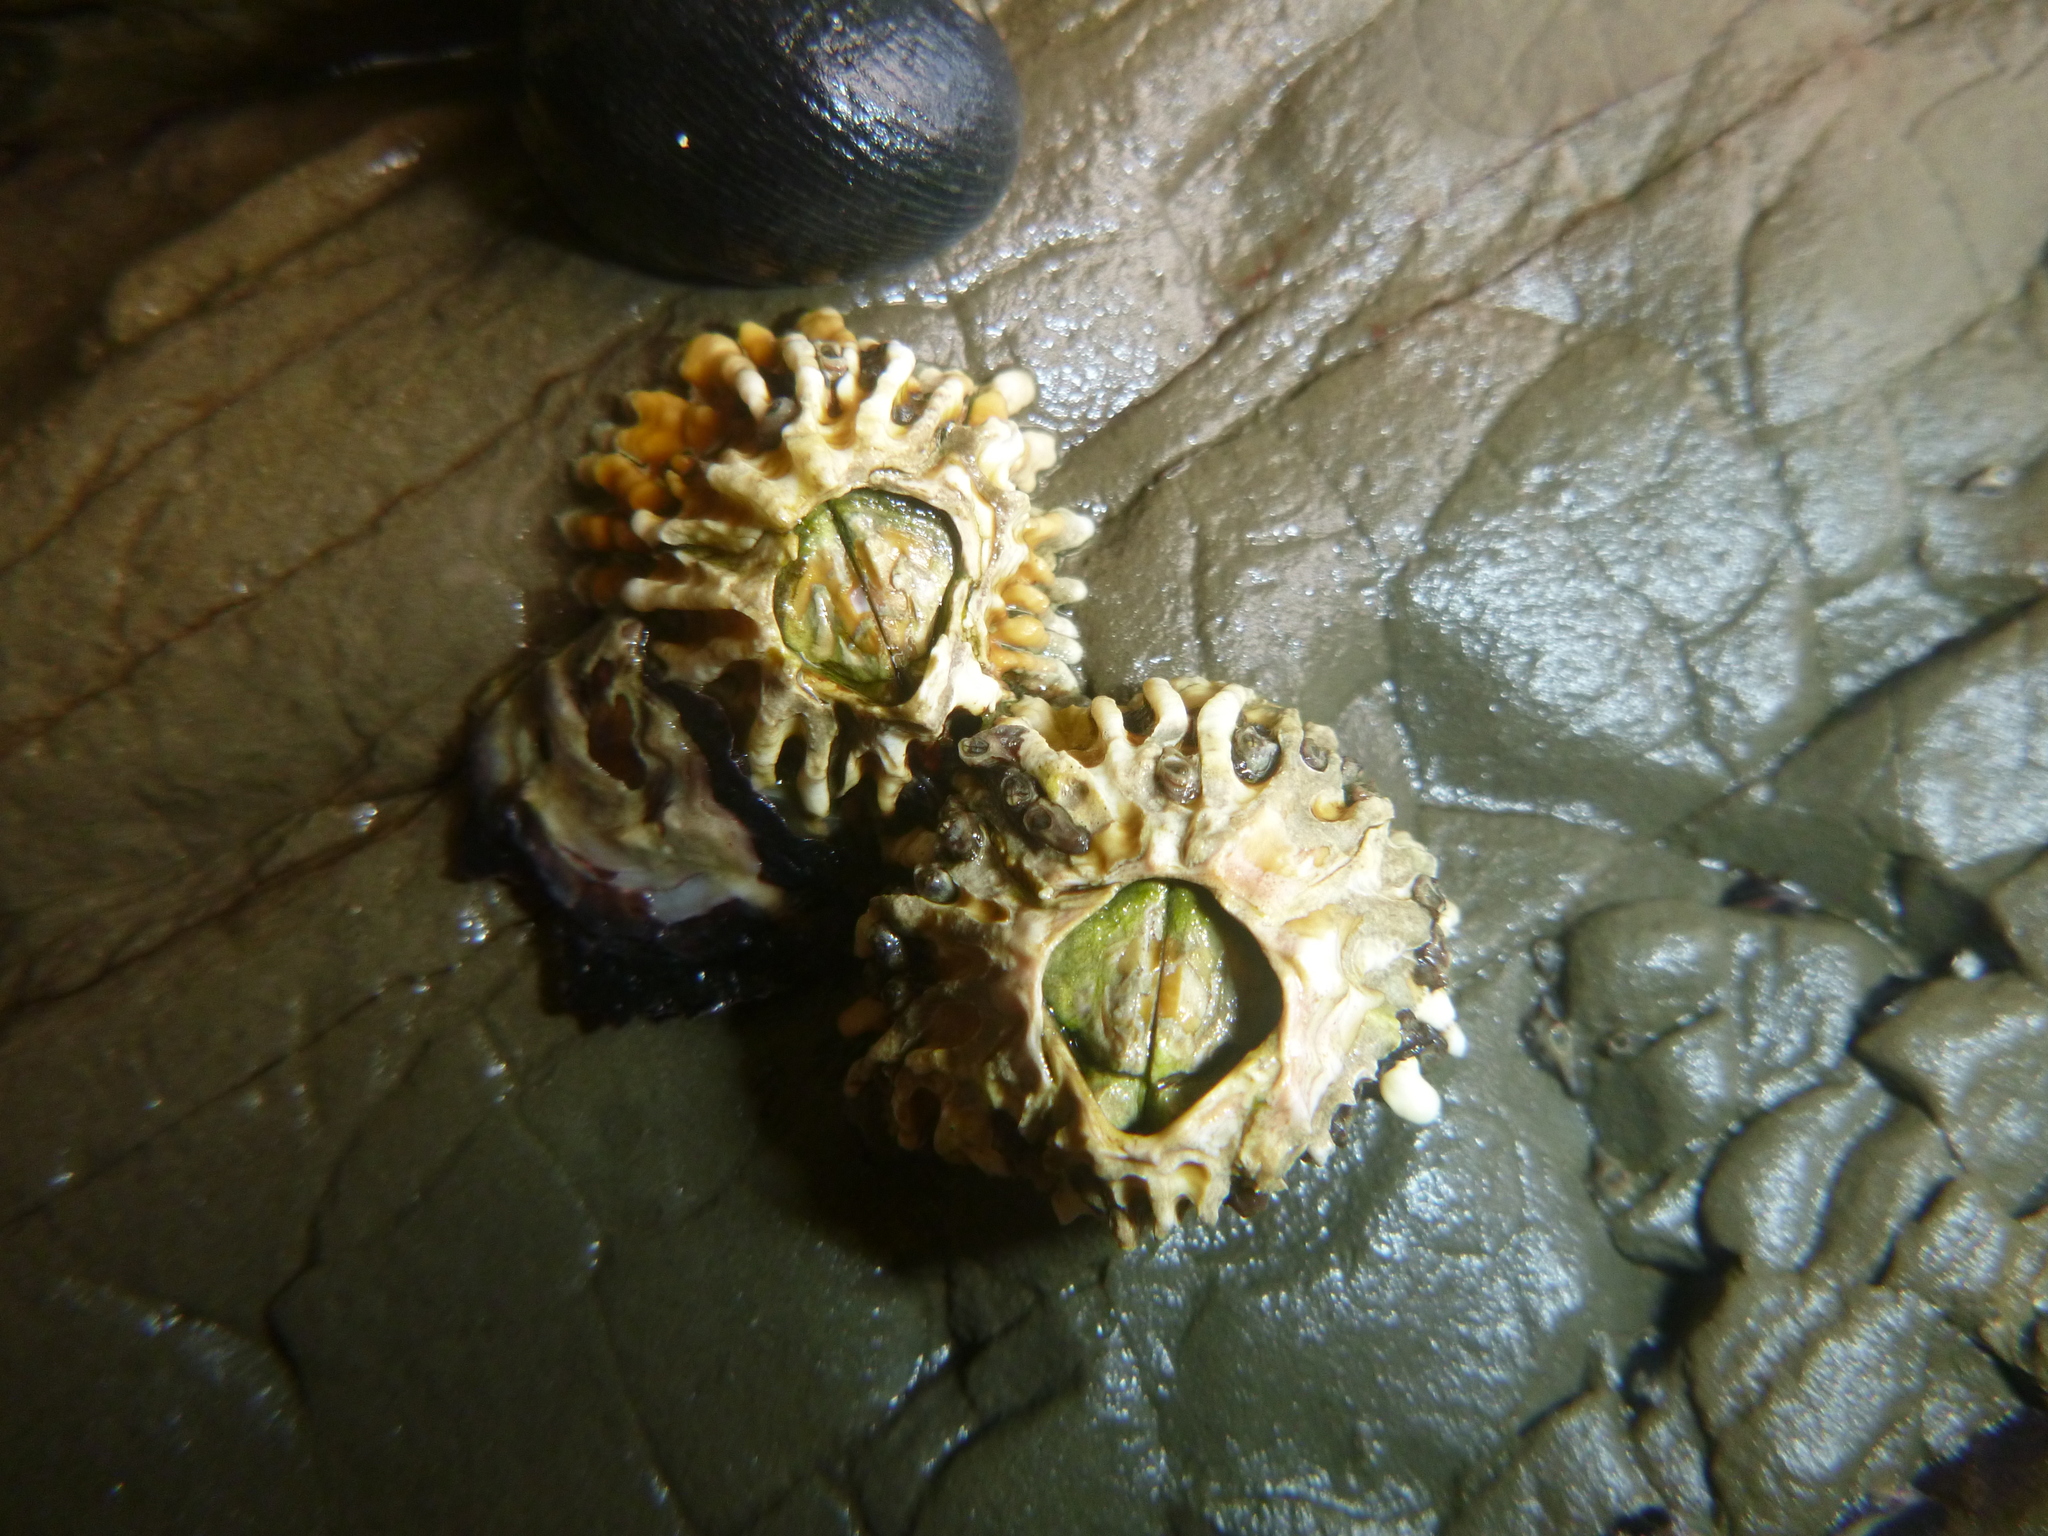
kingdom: Animalia
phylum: Arthropoda
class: Maxillopoda
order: Sessilia
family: Tetraclitidae
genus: Epopella
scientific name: Epopella plicata
